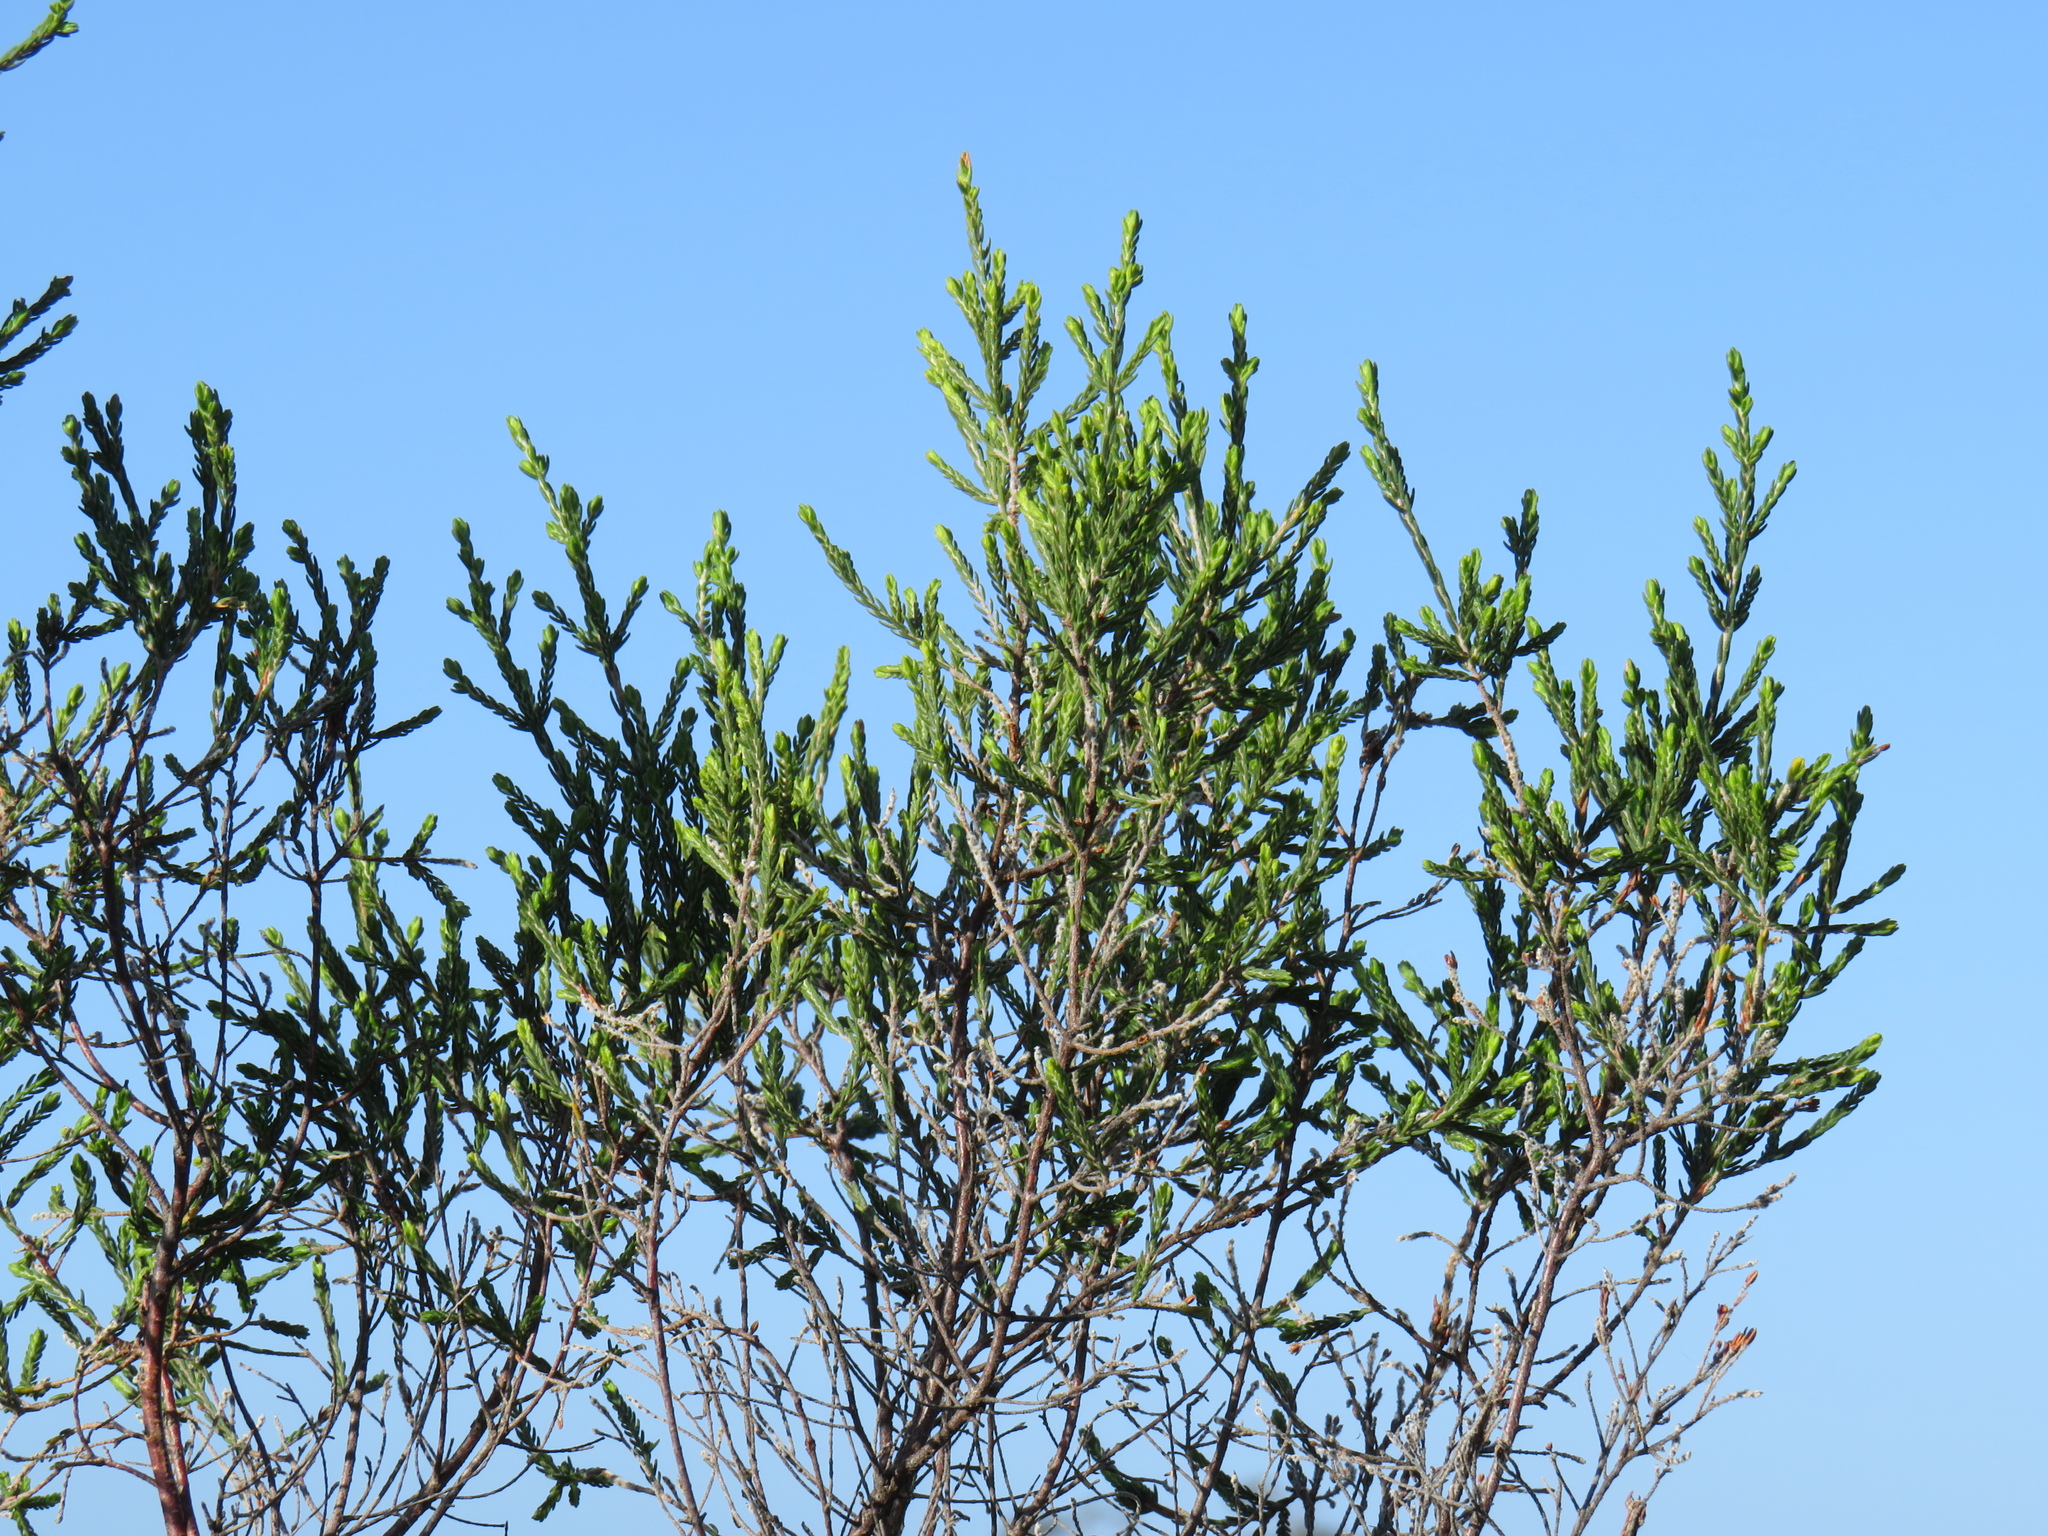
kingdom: Plantae
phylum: Tracheophyta
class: Magnoliopsida
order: Malvales
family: Thymelaeaceae
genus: Passerina
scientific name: Passerina corymbosa
